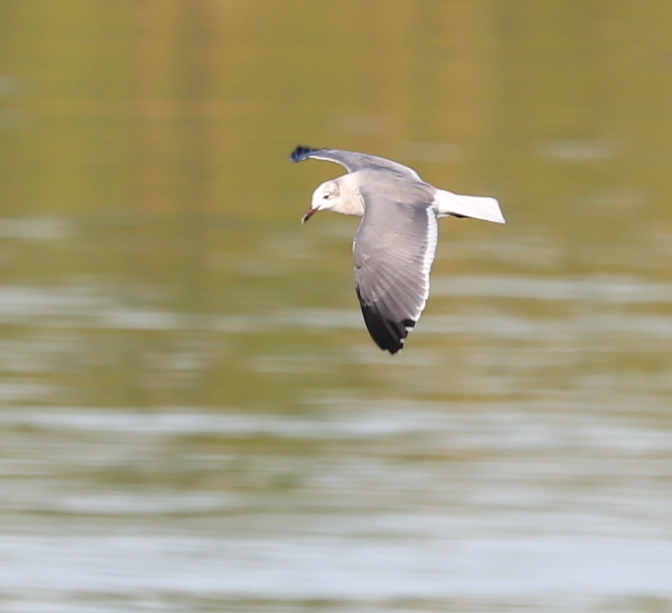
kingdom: Animalia
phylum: Chordata
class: Aves
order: Charadriiformes
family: Laridae
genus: Leucophaeus
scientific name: Leucophaeus atricilla
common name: Laughing gull
